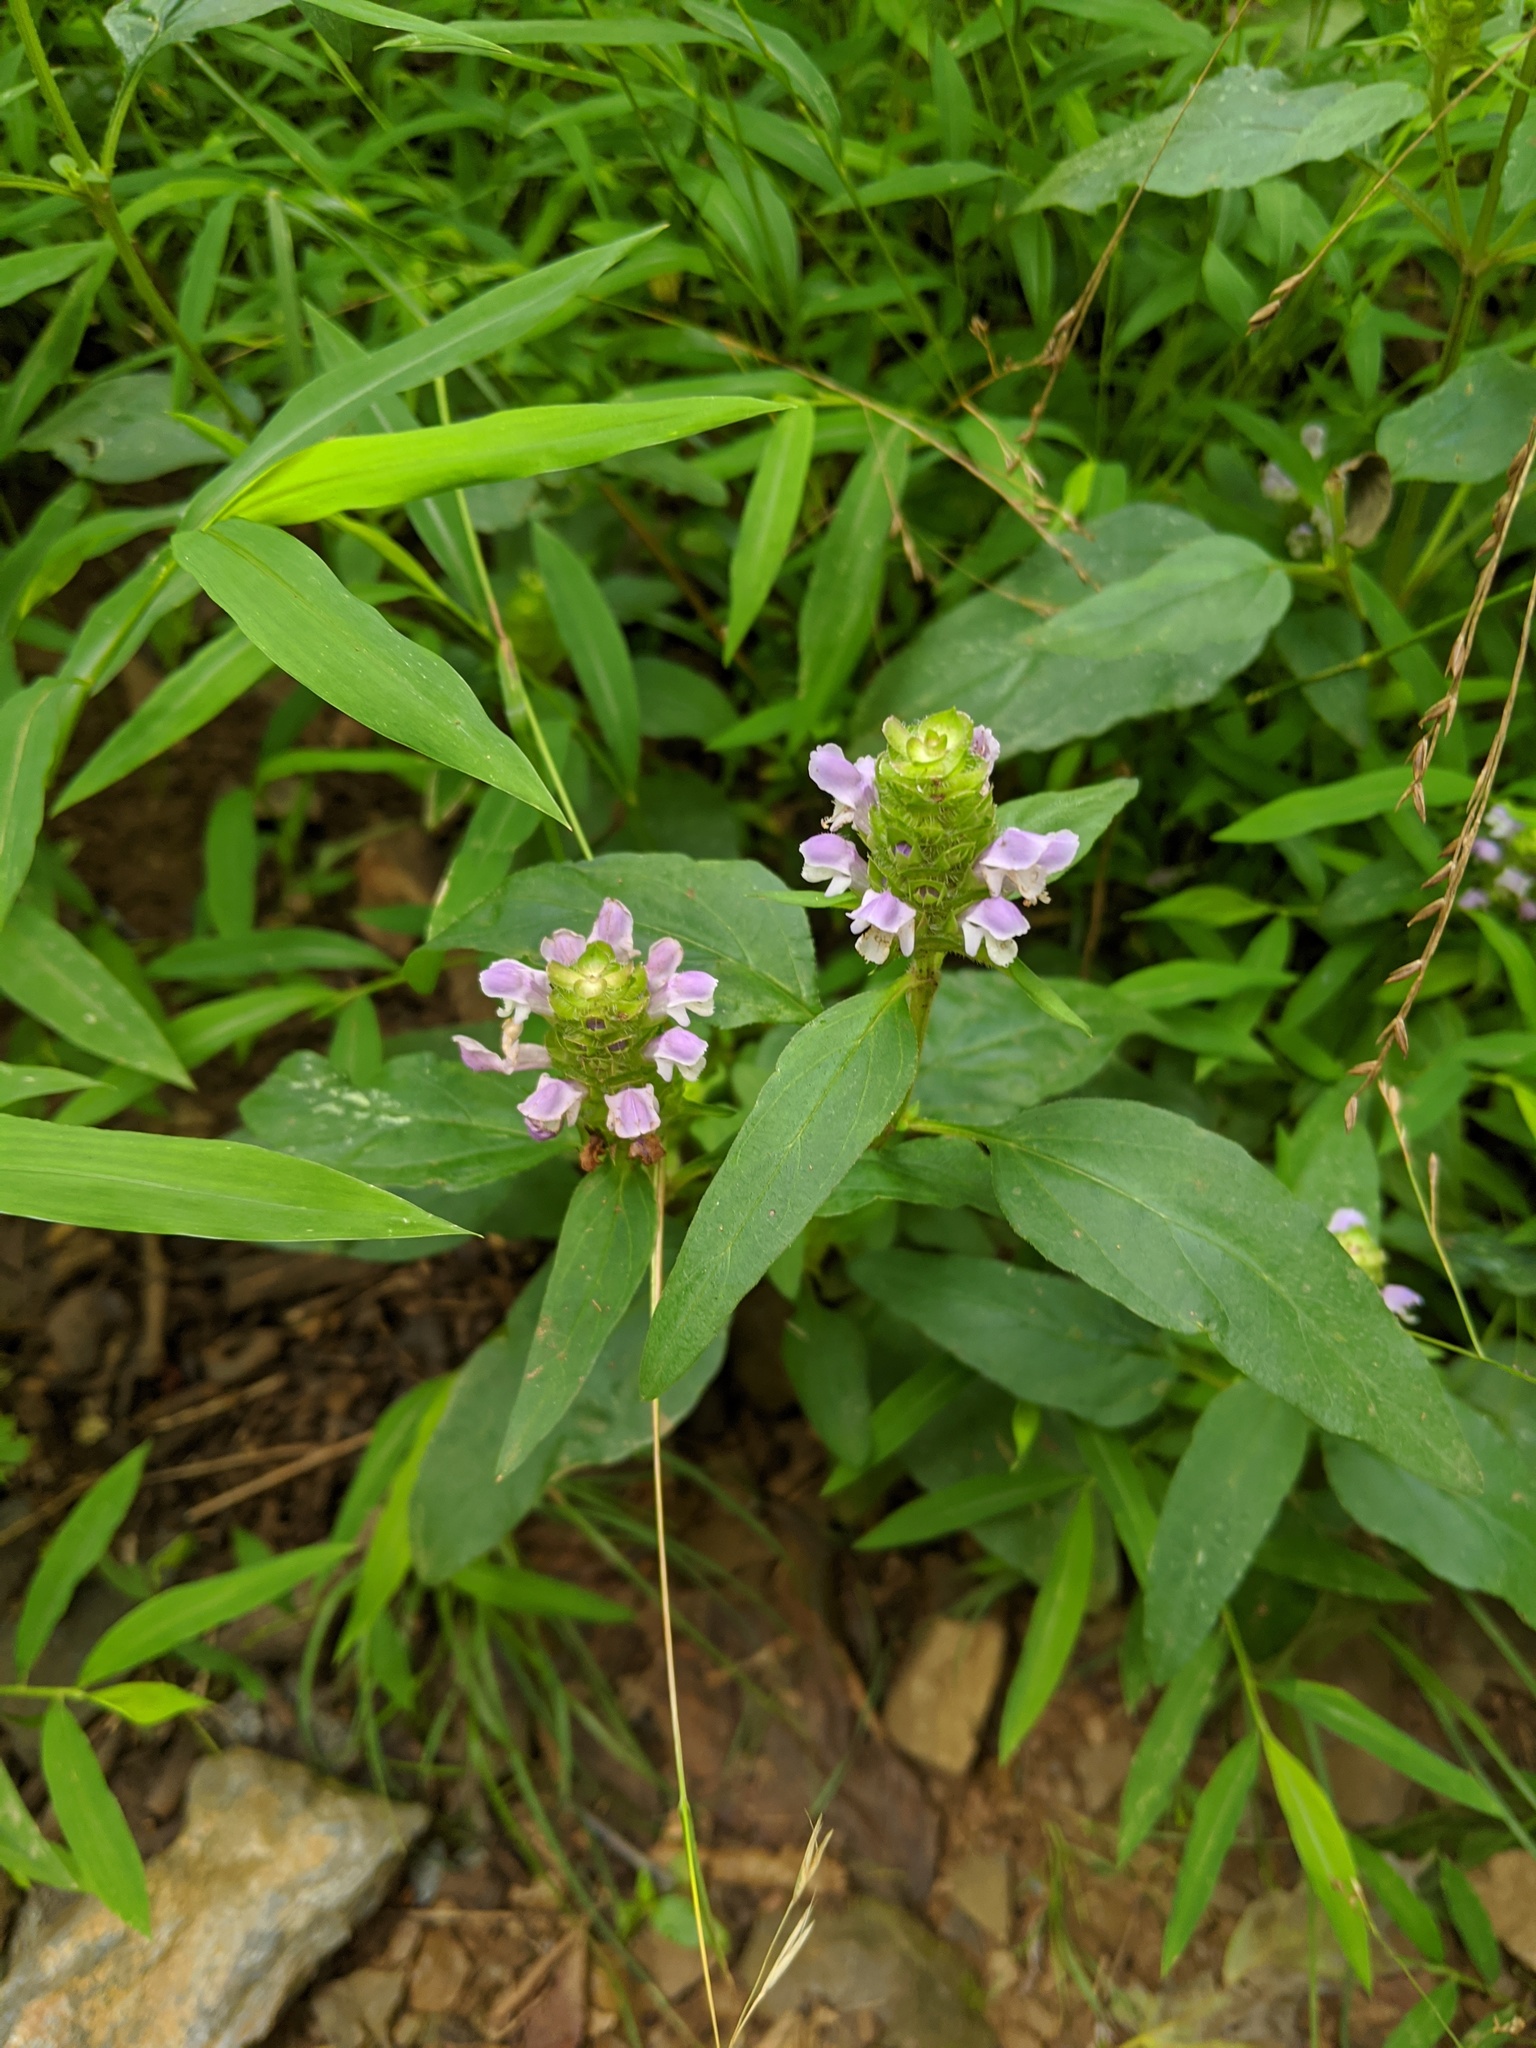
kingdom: Plantae
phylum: Tracheophyta
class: Magnoliopsida
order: Lamiales
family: Lamiaceae
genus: Prunella
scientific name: Prunella vulgaris
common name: Heal-all
